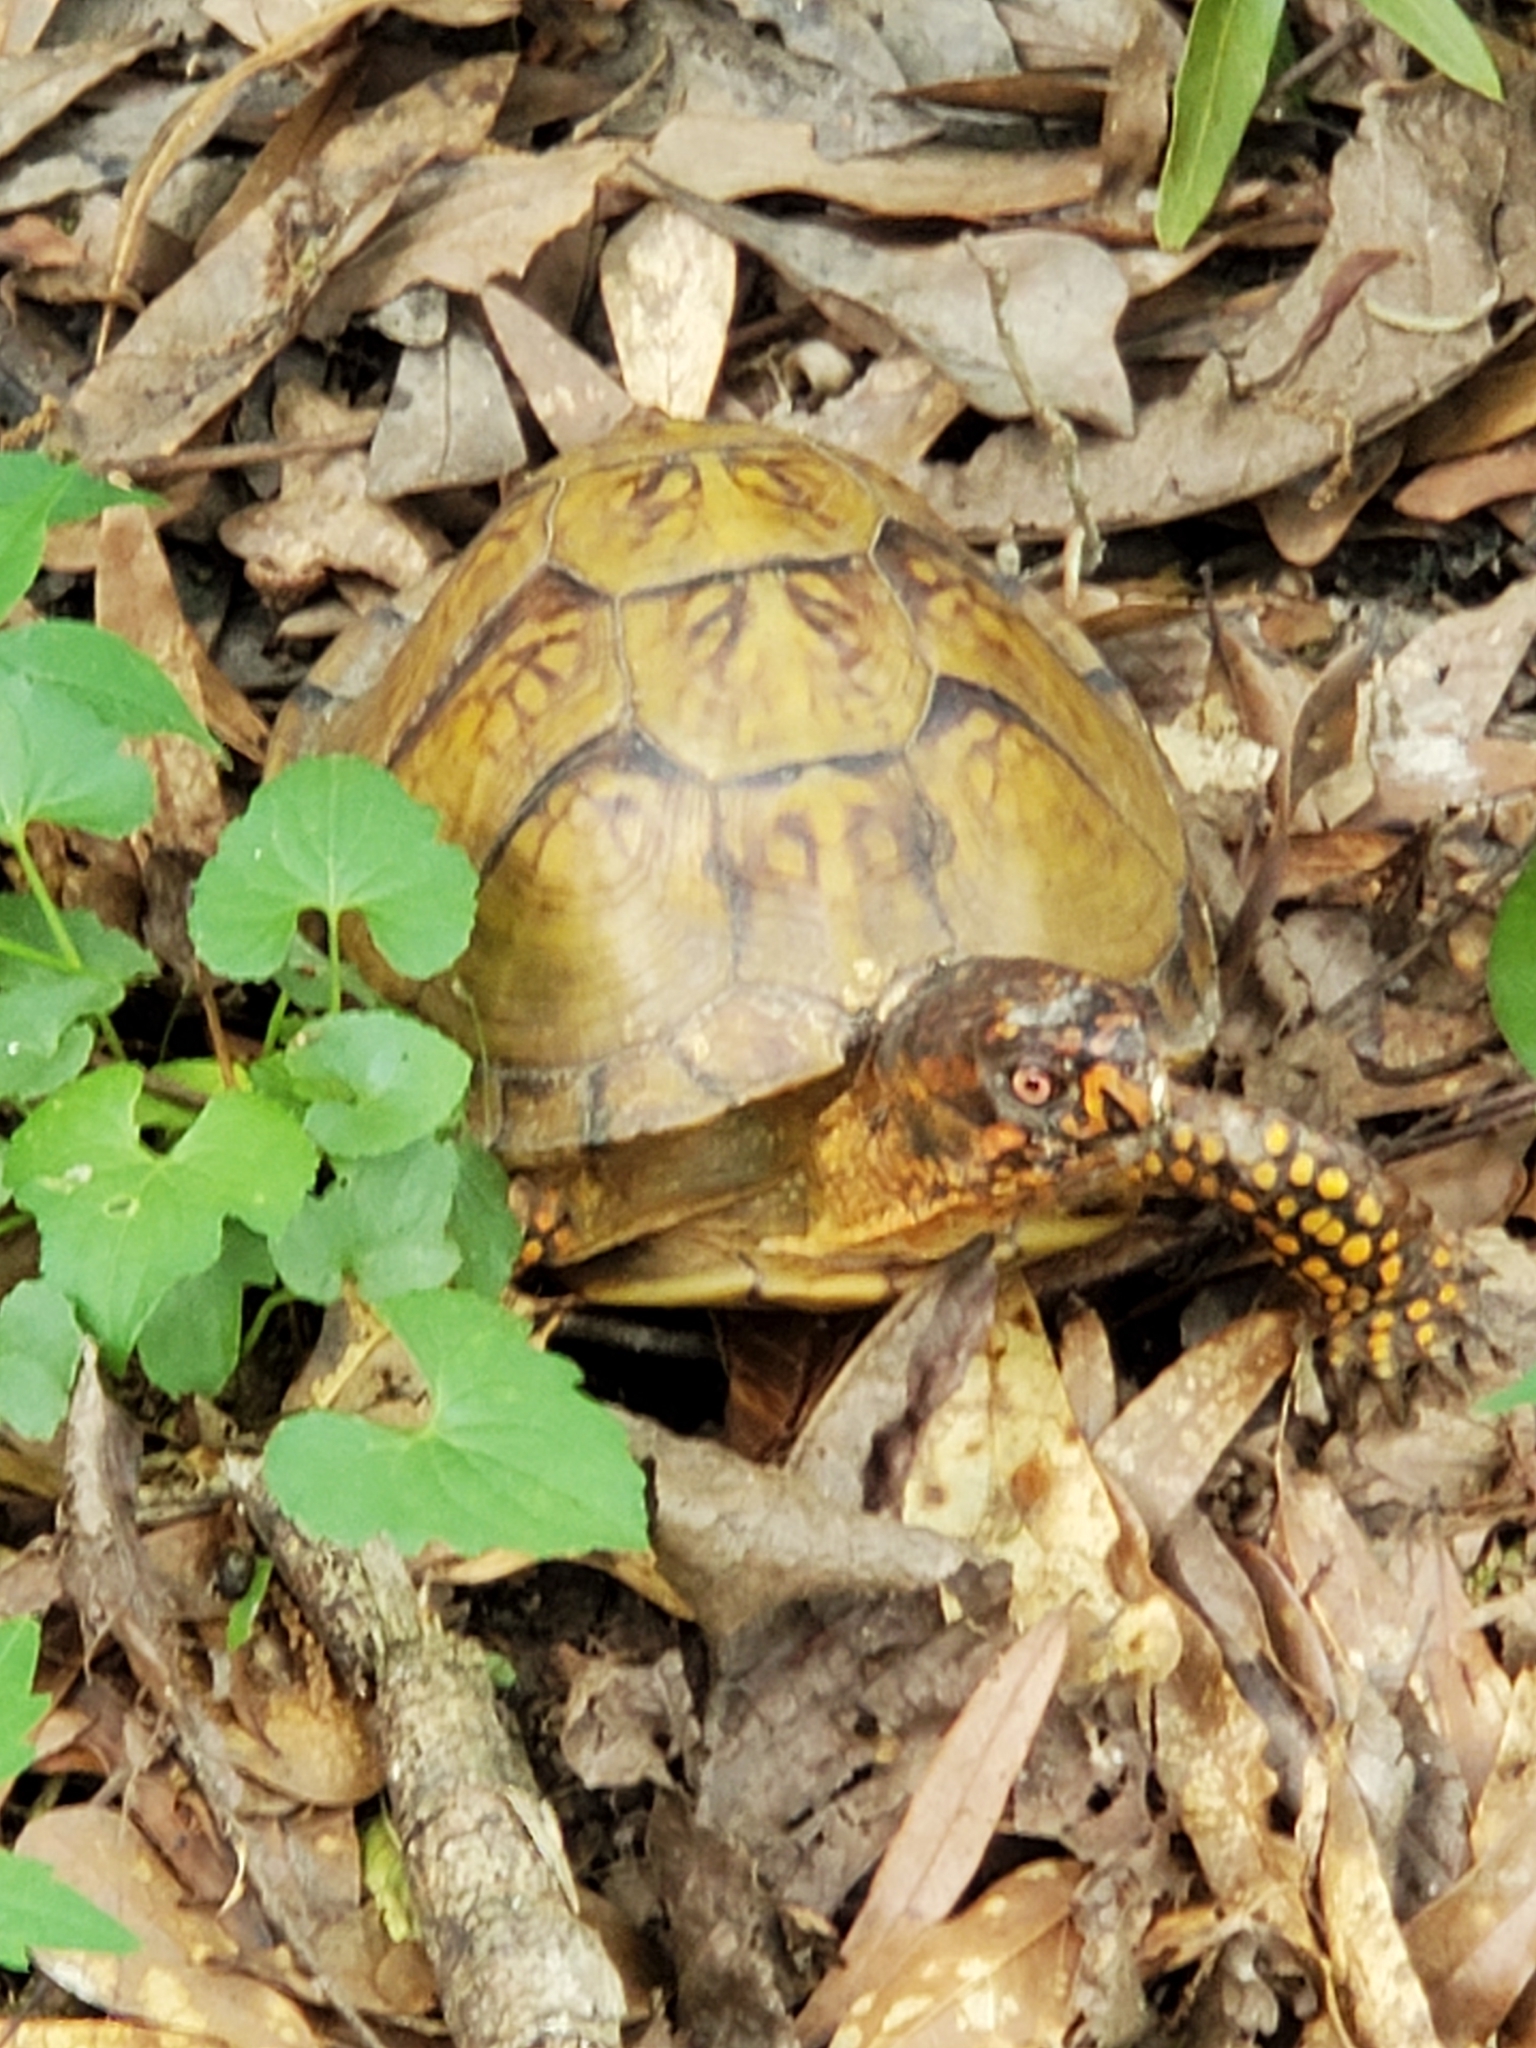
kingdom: Animalia
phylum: Chordata
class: Testudines
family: Emydidae
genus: Terrapene
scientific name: Terrapene carolina
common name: Common box turtle
